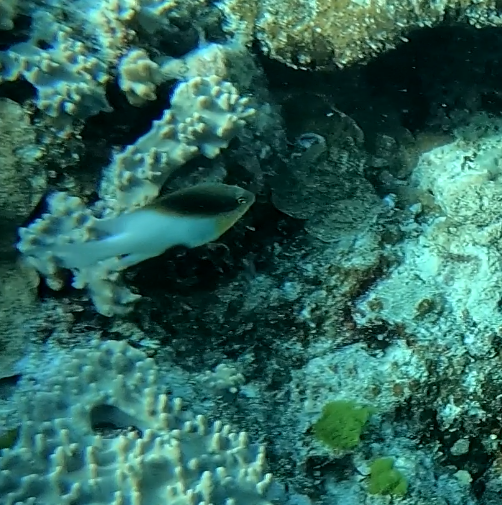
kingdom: Animalia
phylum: Chordata
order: Perciformes
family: Pomacentridae
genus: Dischistodus
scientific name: Dischistodus melanotus
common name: Black-vent damsel
